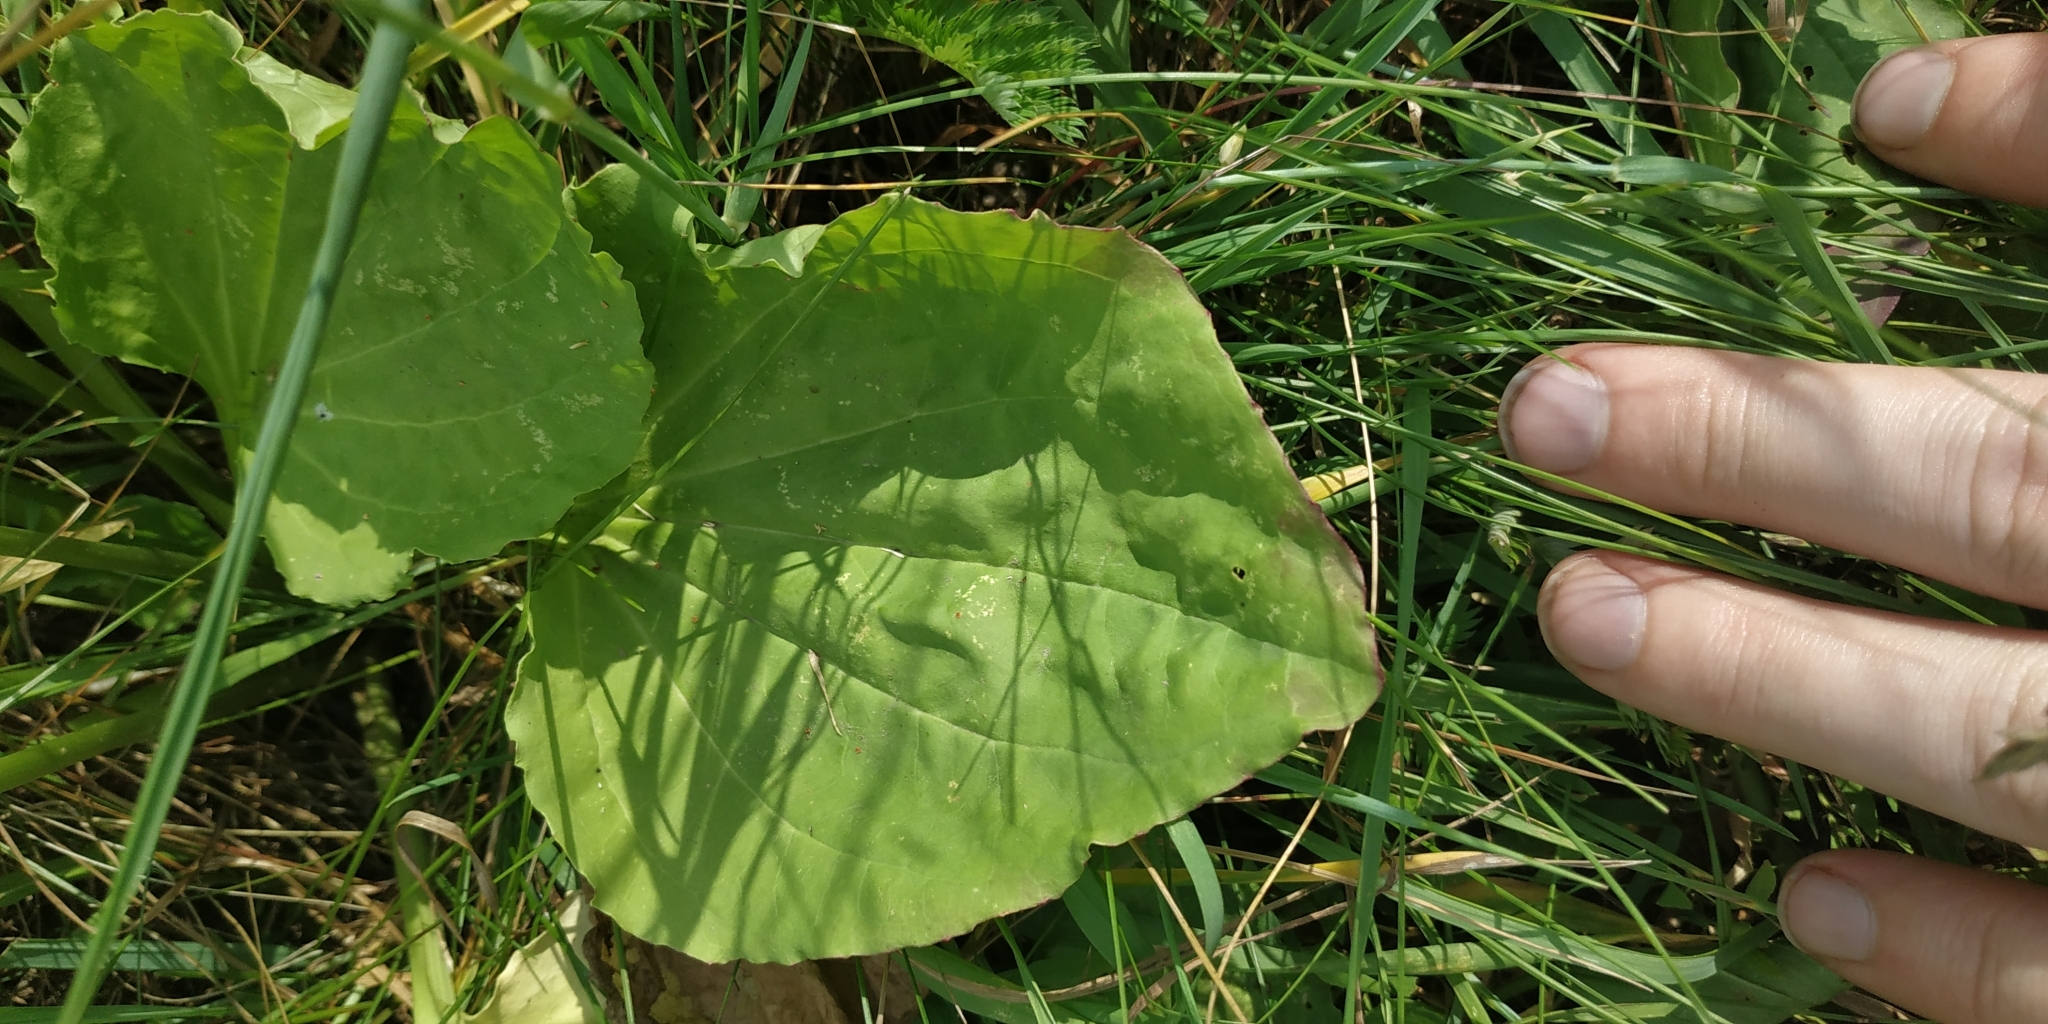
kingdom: Plantae
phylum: Tracheophyta
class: Magnoliopsida
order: Lamiales
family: Plantaginaceae
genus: Plantago
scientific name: Plantago major
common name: Common plantain
